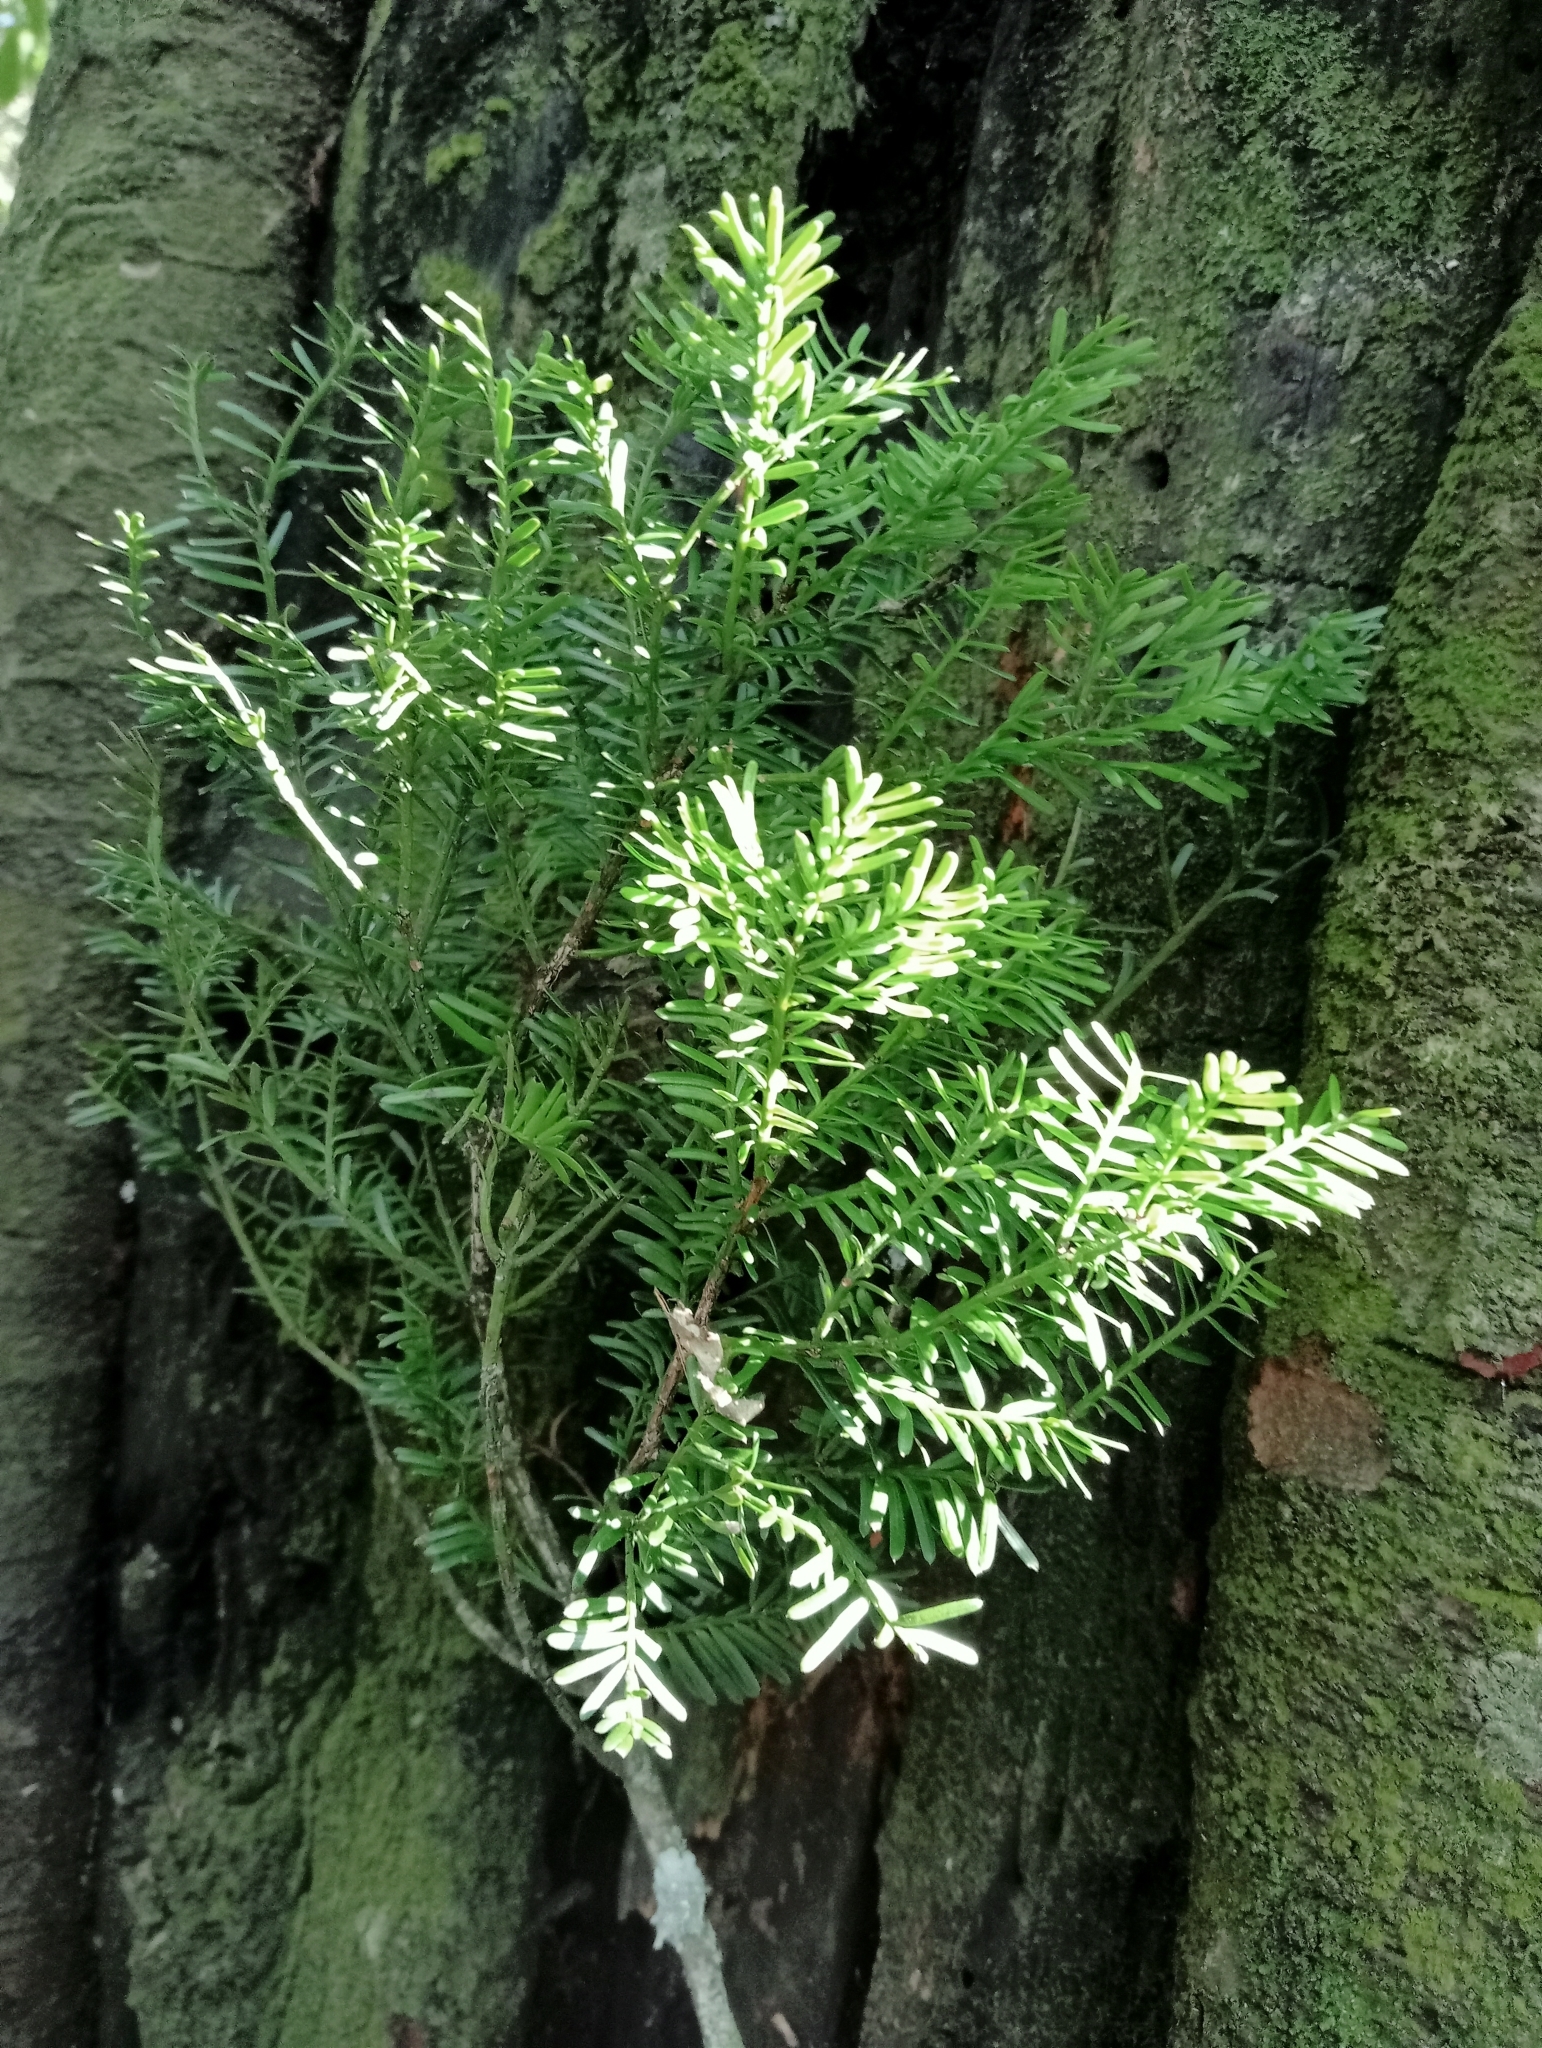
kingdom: Plantae
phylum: Tracheophyta
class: Pinopsida
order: Pinales
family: Podocarpaceae
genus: Prumnopitys
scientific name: Prumnopitys taxifolia
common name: Matai
